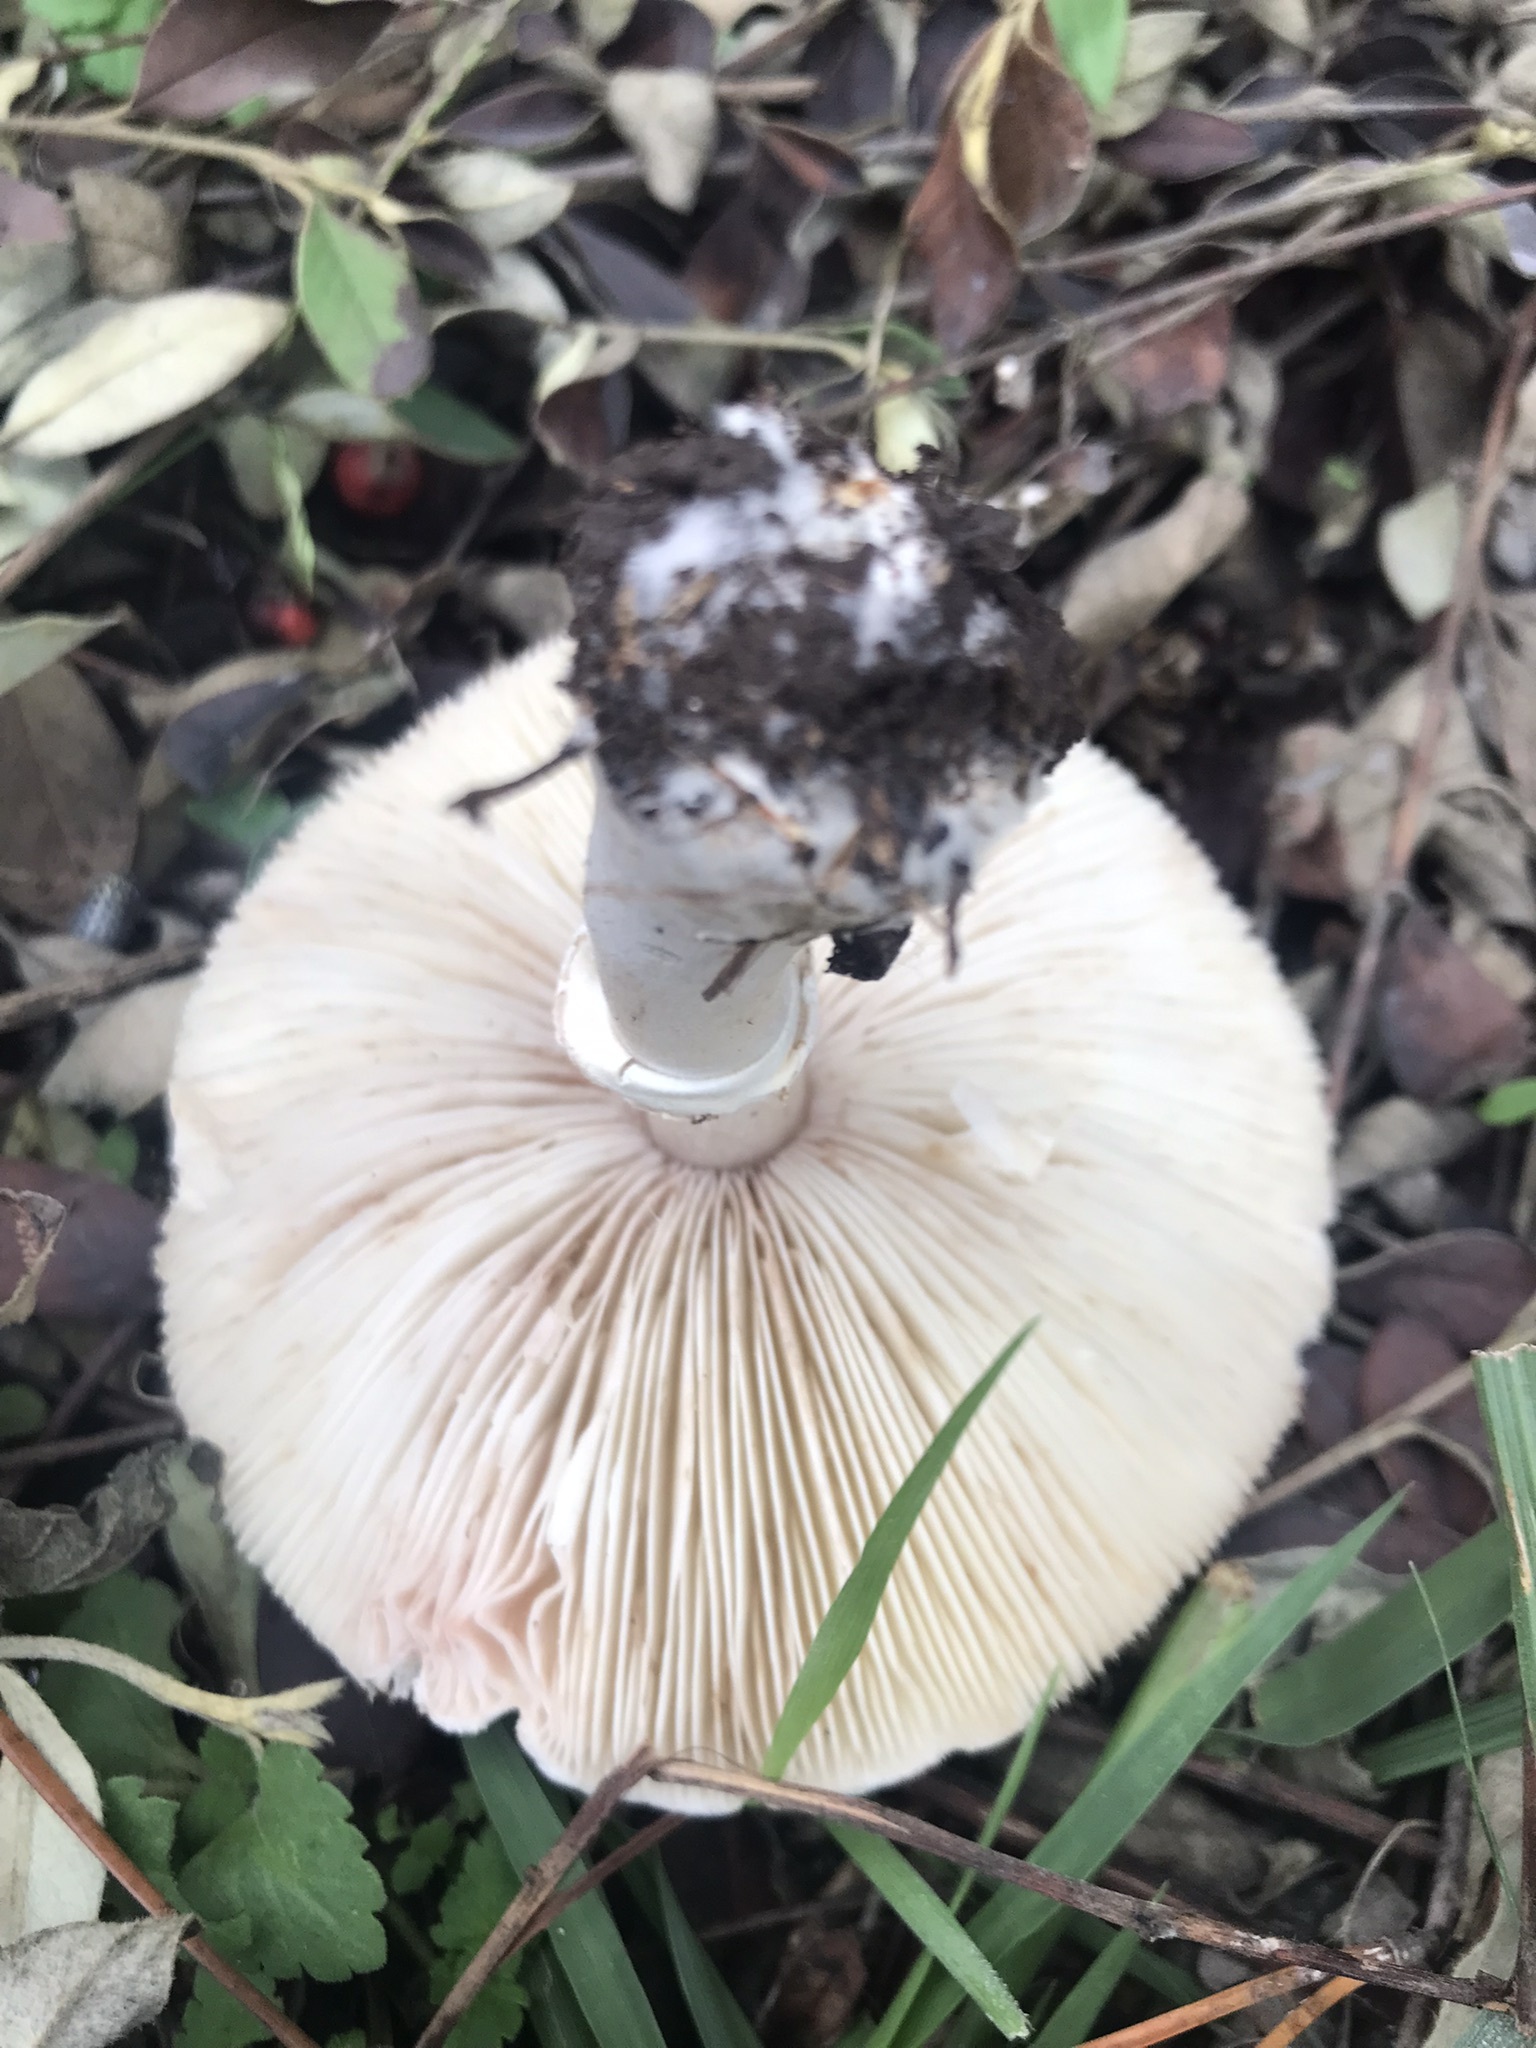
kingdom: Fungi
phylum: Basidiomycota
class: Agaricomycetes
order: Agaricales
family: Agaricaceae
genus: Leucoagaricus
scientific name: Leucoagaricus leucothites
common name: White dapperling
